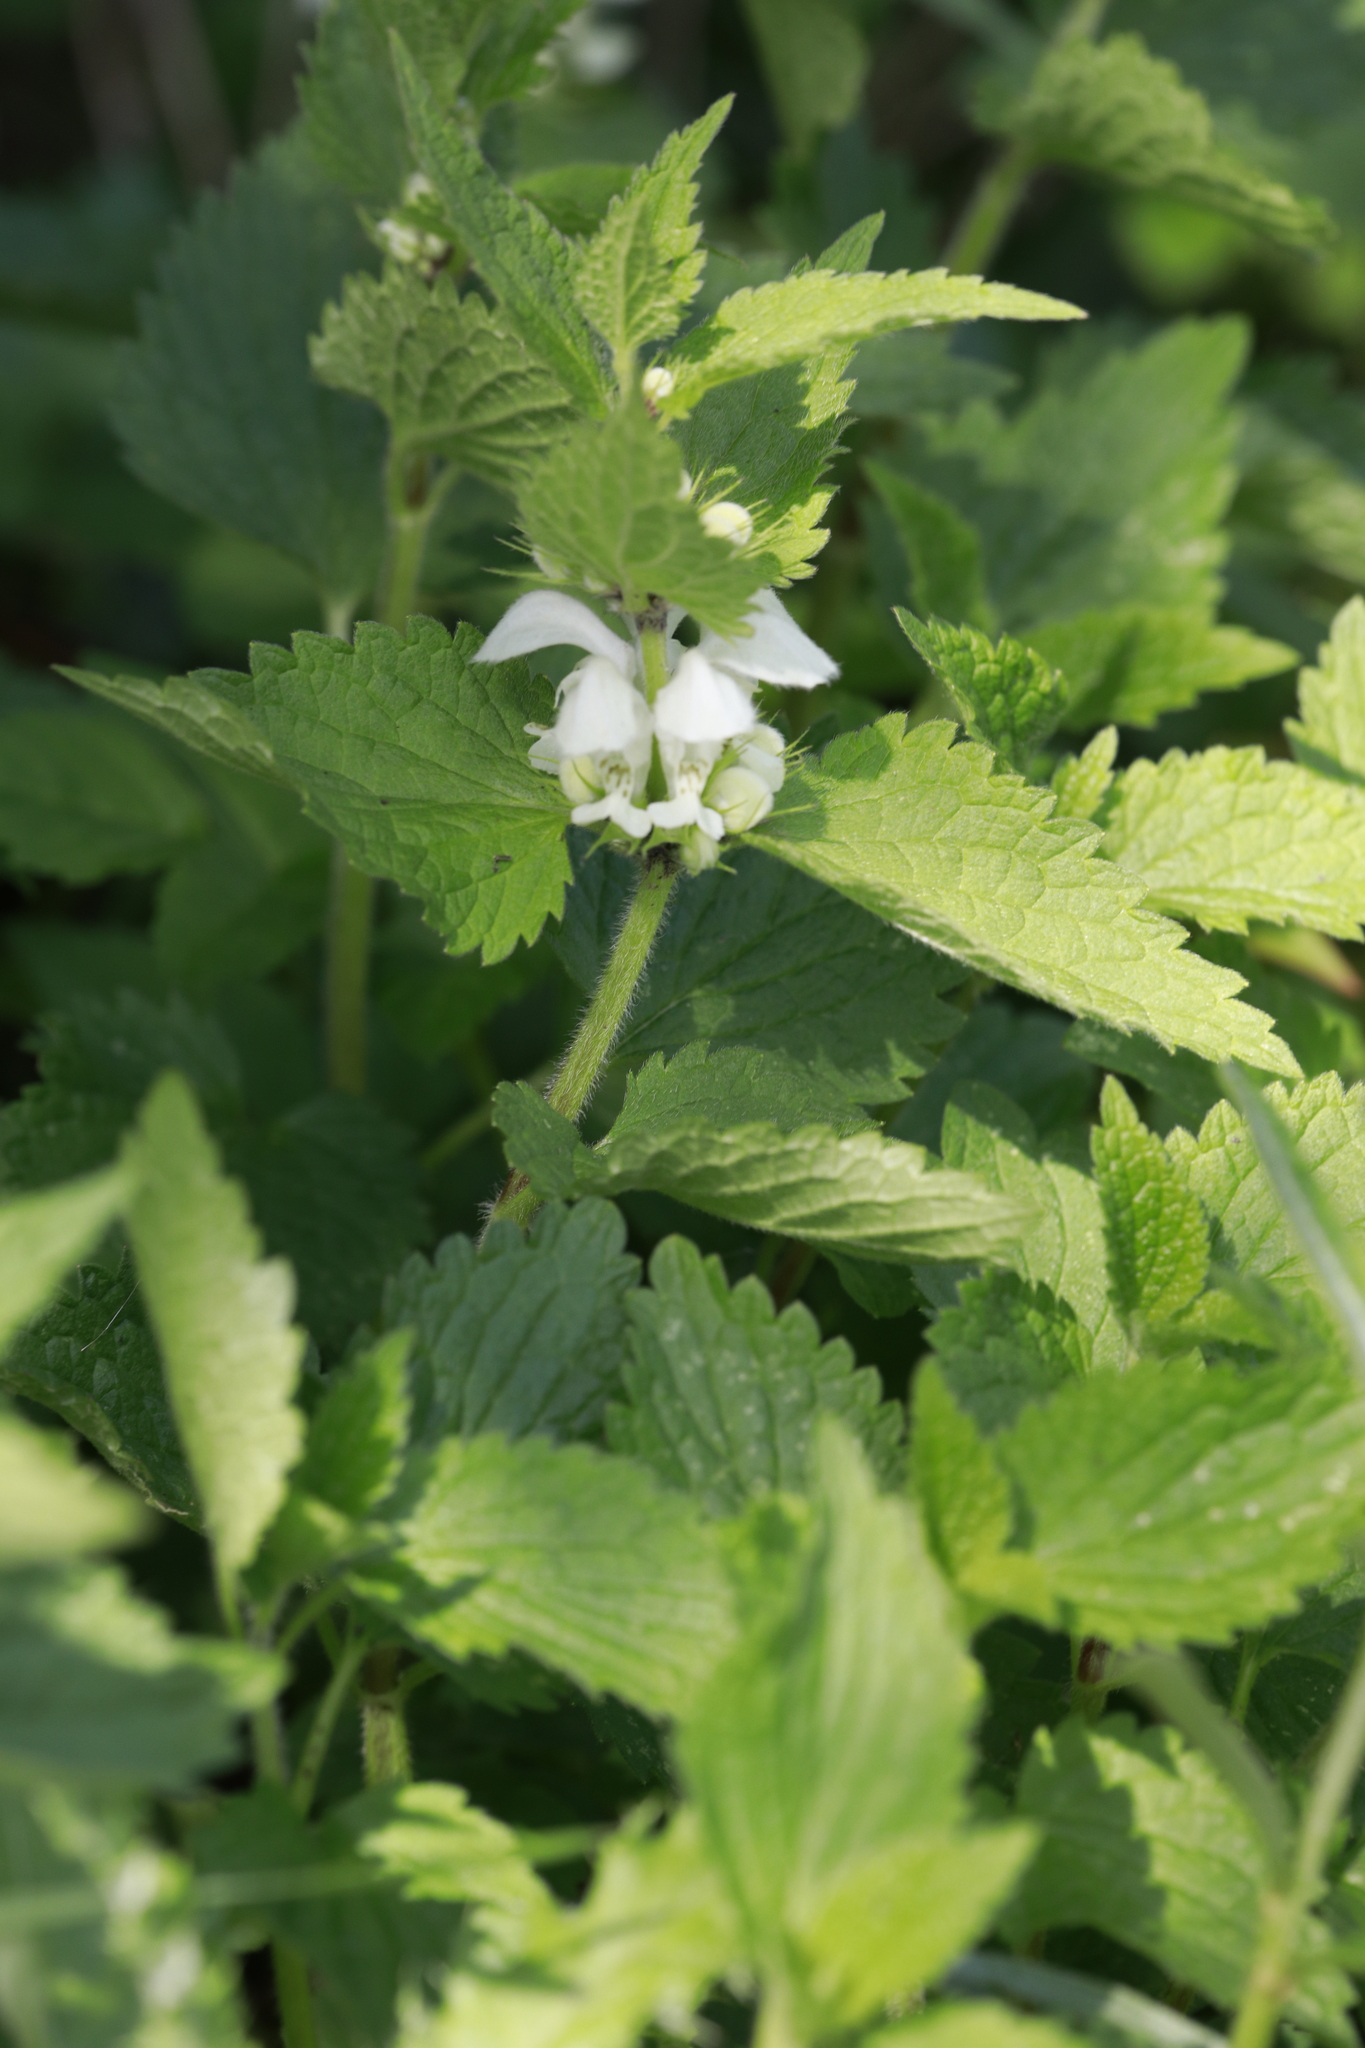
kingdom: Plantae
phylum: Tracheophyta
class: Magnoliopsida
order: Lamiales
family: Lamiaceae
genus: Lamium
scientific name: Lamium album
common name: White dead-nettle
